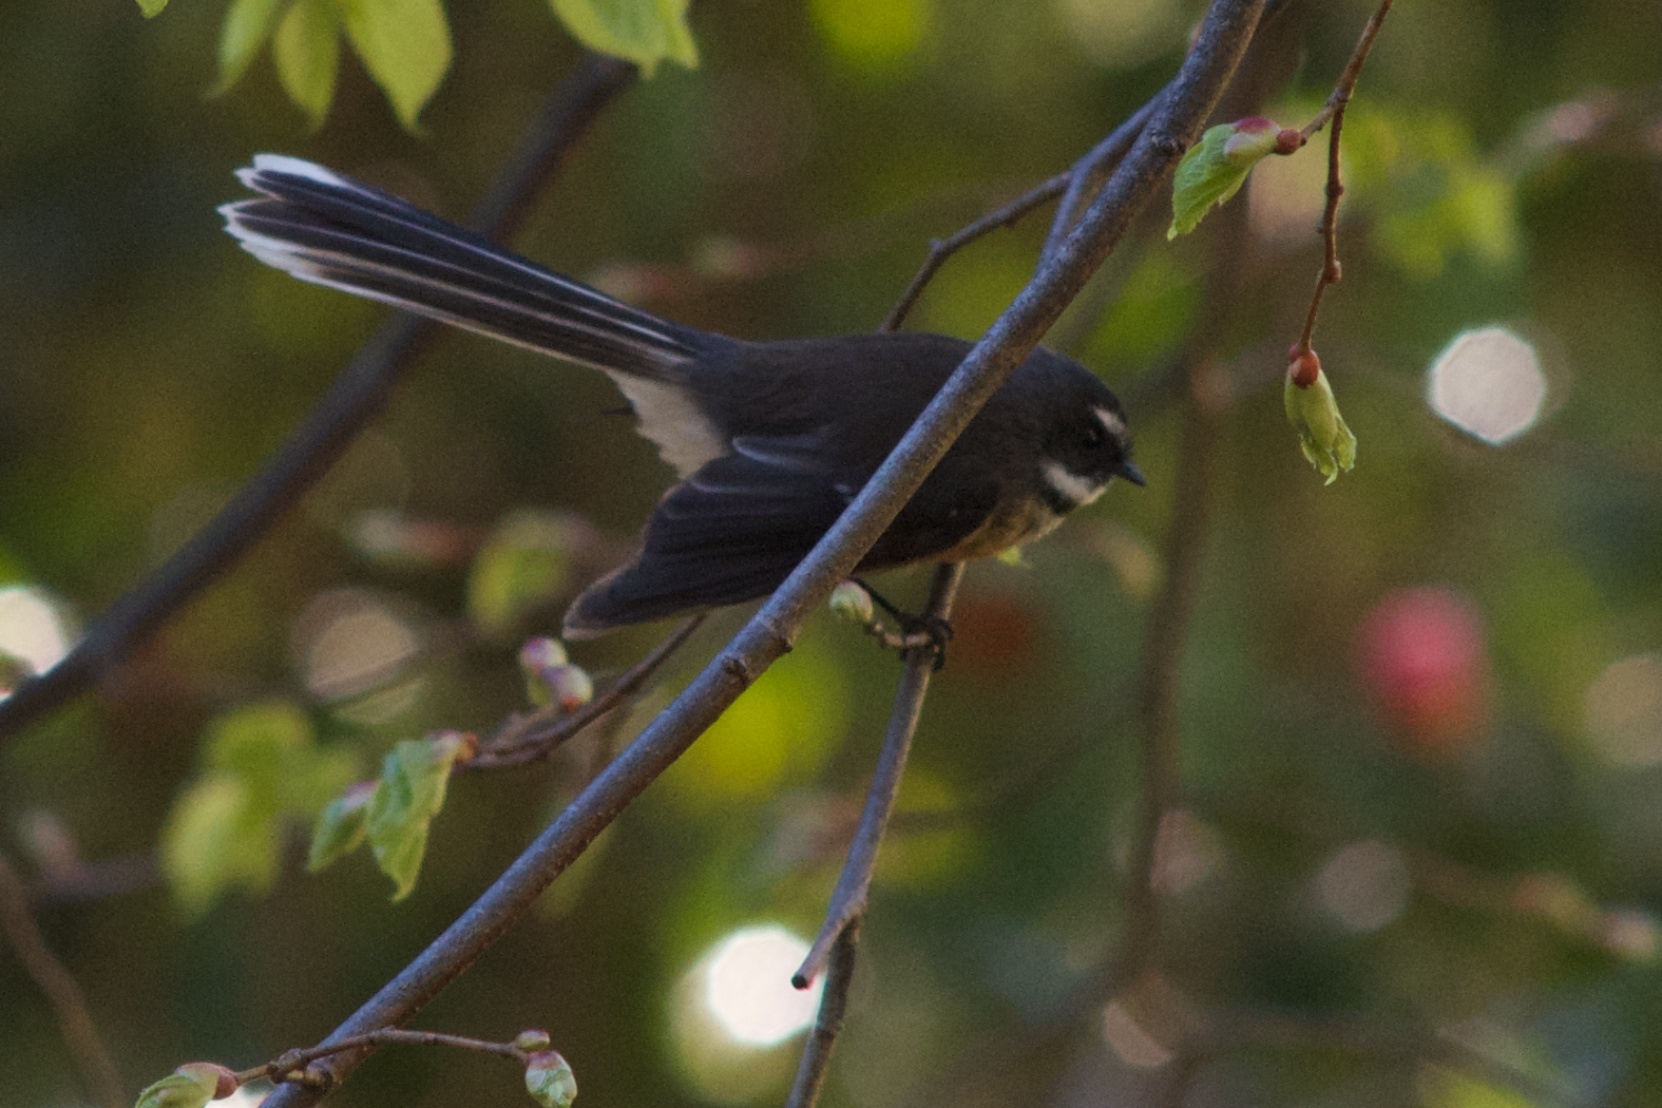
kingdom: Animalia
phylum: Chordata
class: Aves
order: Passeriformes
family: Rhipiduridae
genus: Rhipidura
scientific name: Rhipidura fuliginosa
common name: New zealand fantail
